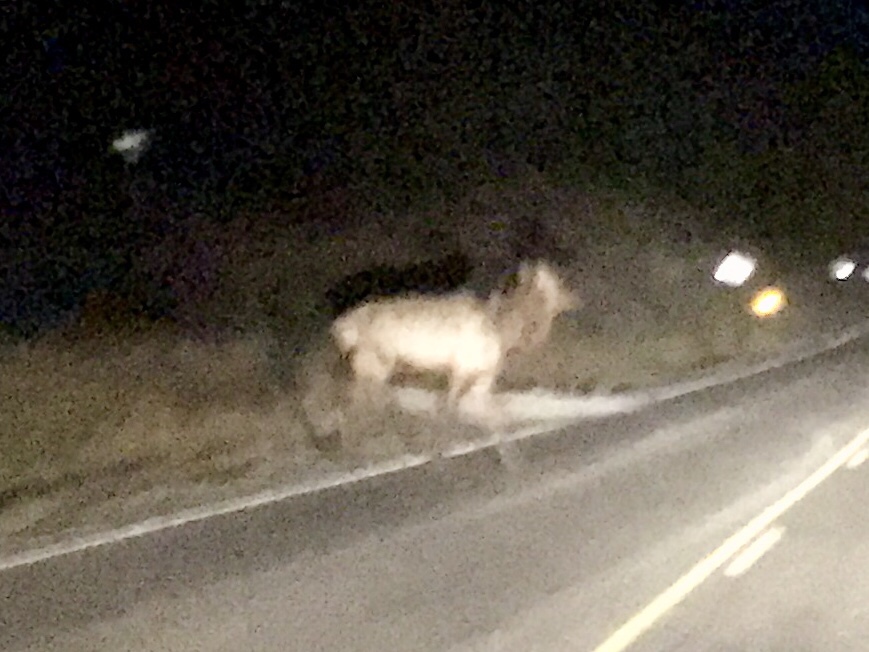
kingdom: Animalia
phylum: Chordata
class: Mammalia
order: Artiodactyla
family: Cervidae
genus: Cervus
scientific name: Cervus elaphus
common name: Red deer
